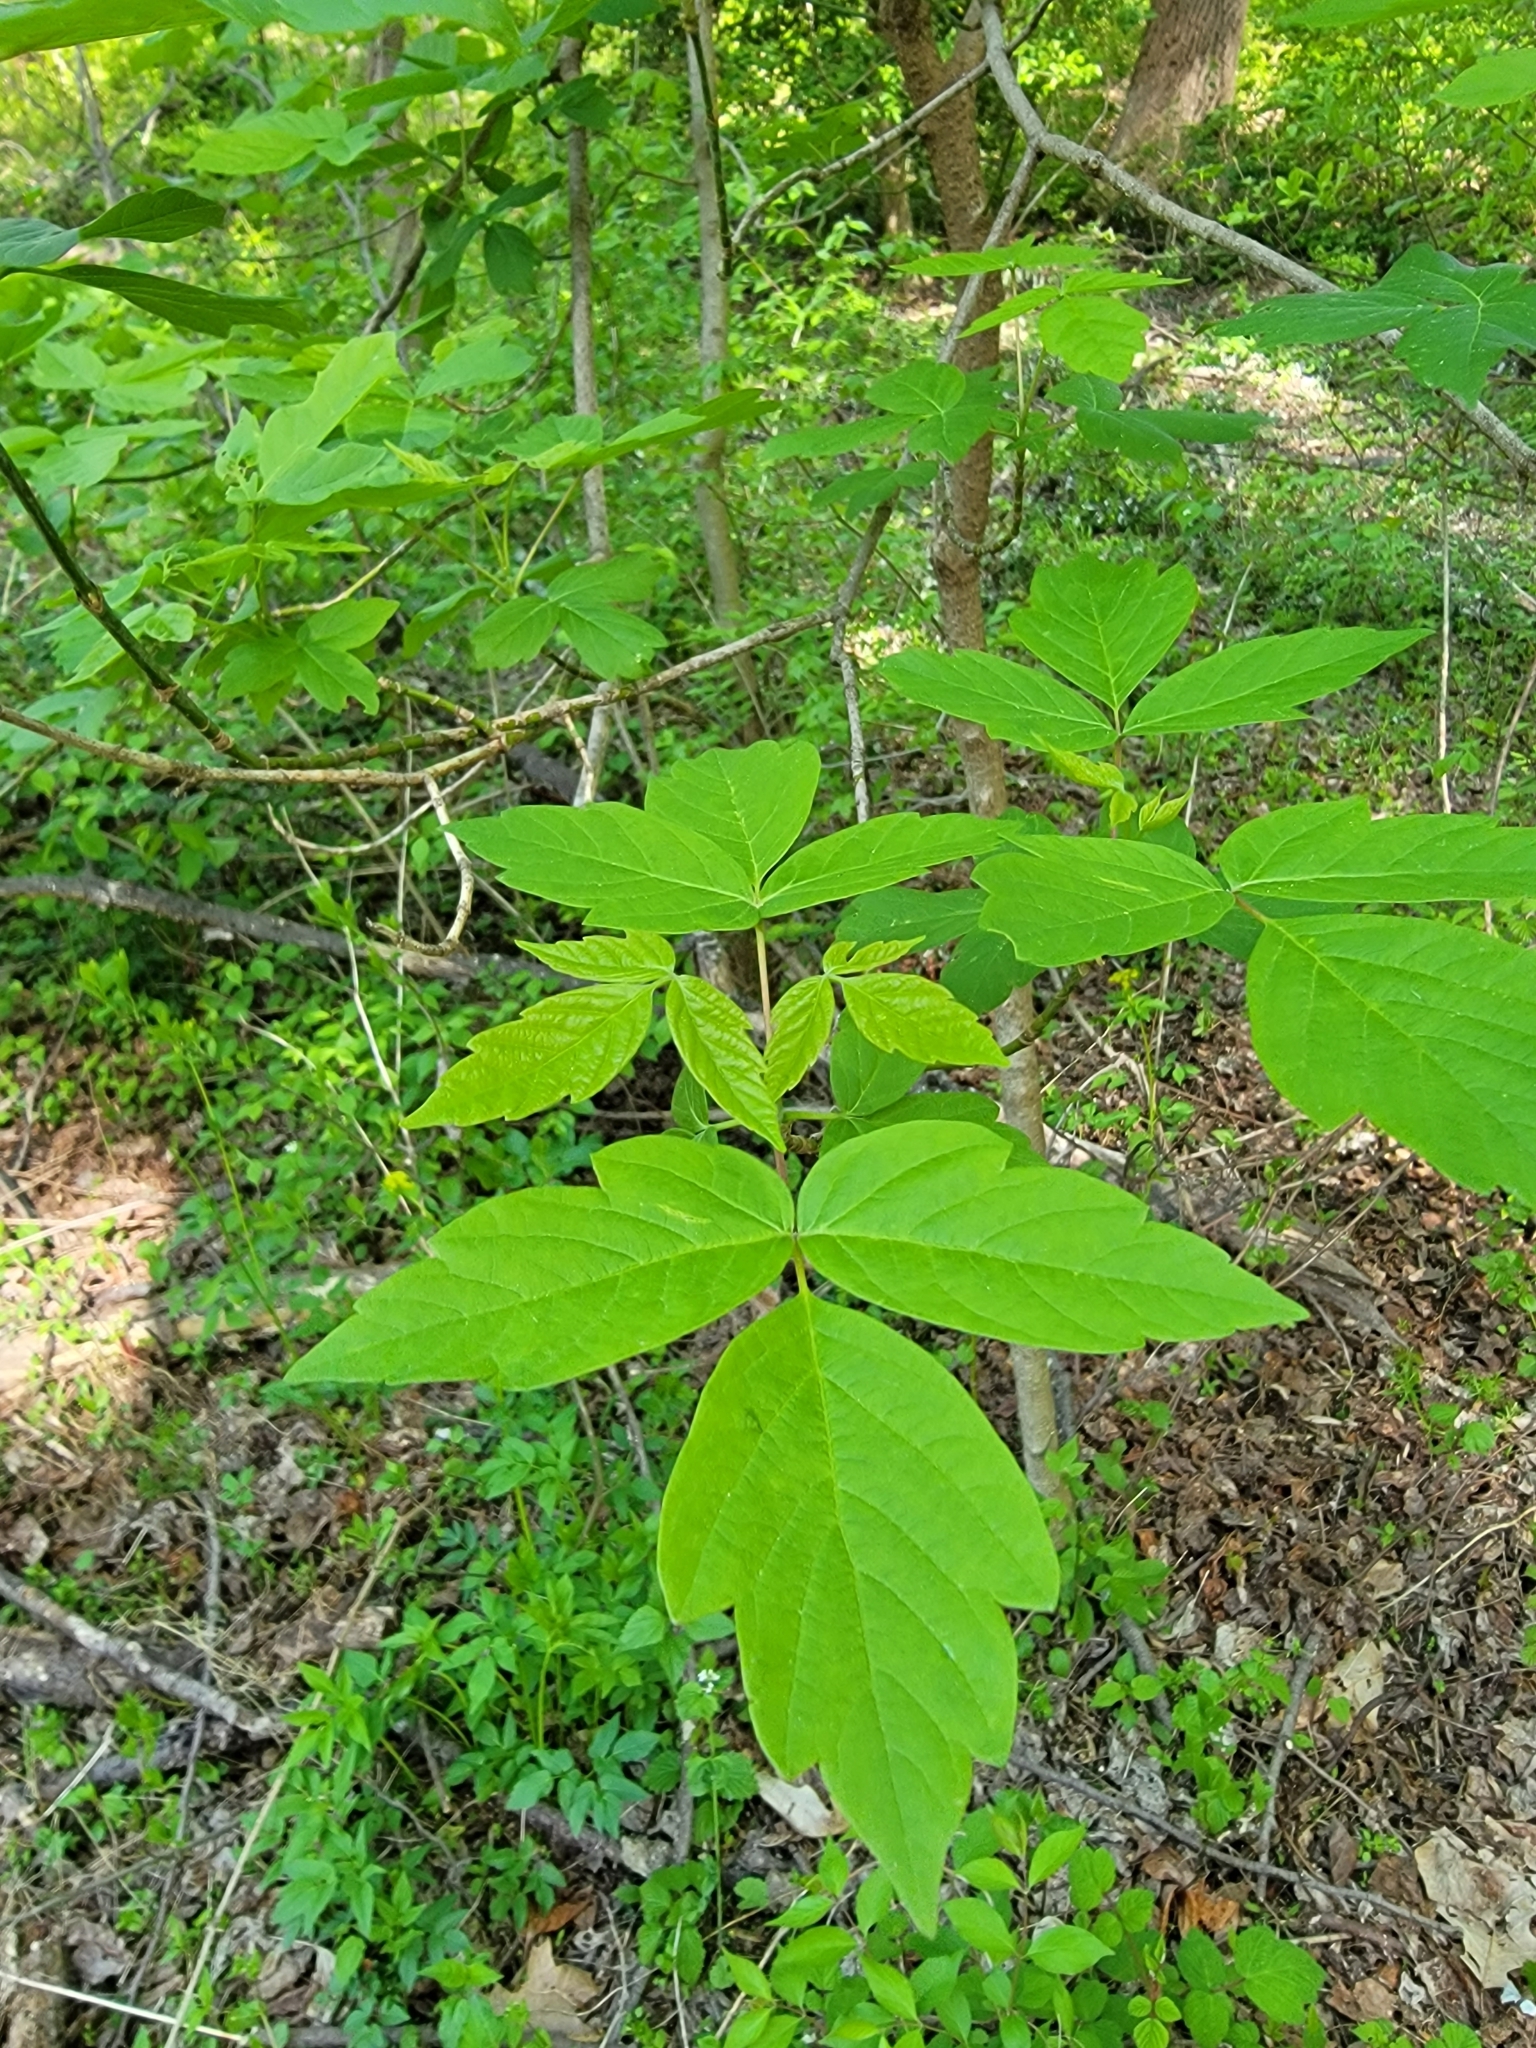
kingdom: Plantae
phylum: Tracheophyta
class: Magnoliopsida
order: Sapindales
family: Sapindaceae
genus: Acer
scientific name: Acer negundo
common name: Ashleaf maple
